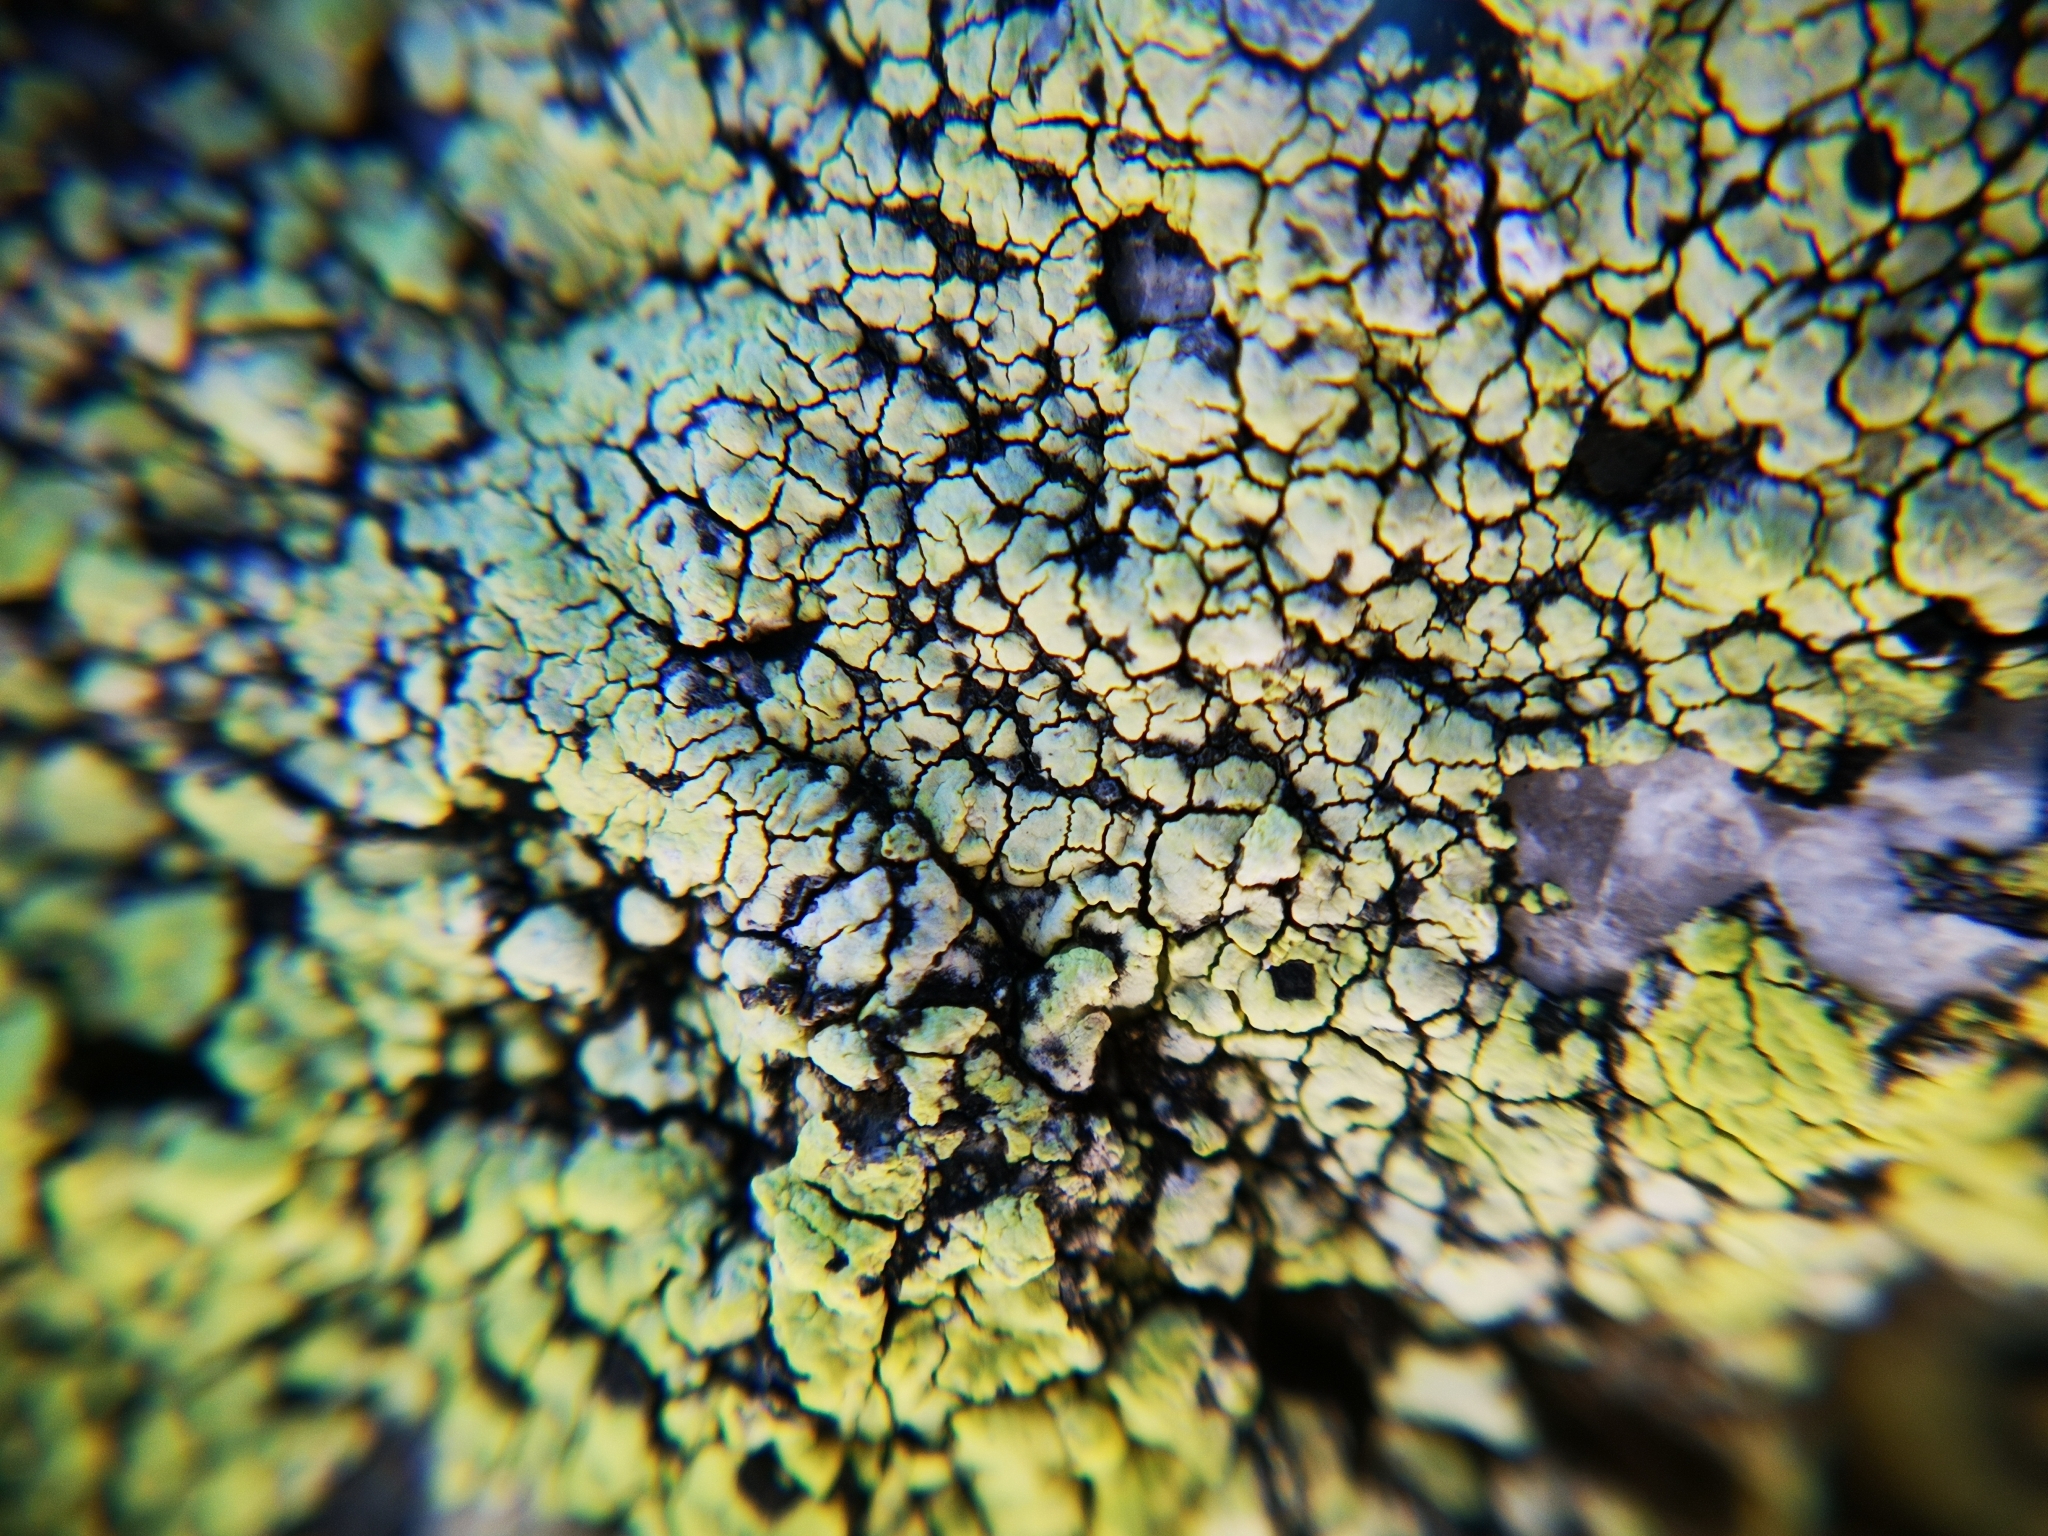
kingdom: Fungi
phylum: Ascomycota
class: Lecanoromycetes
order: Rhizocarpales
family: Rhizocarpaceae
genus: Rhizocarpon
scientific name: Rhizocarpon lecanorinum
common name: Crescent map lichen
